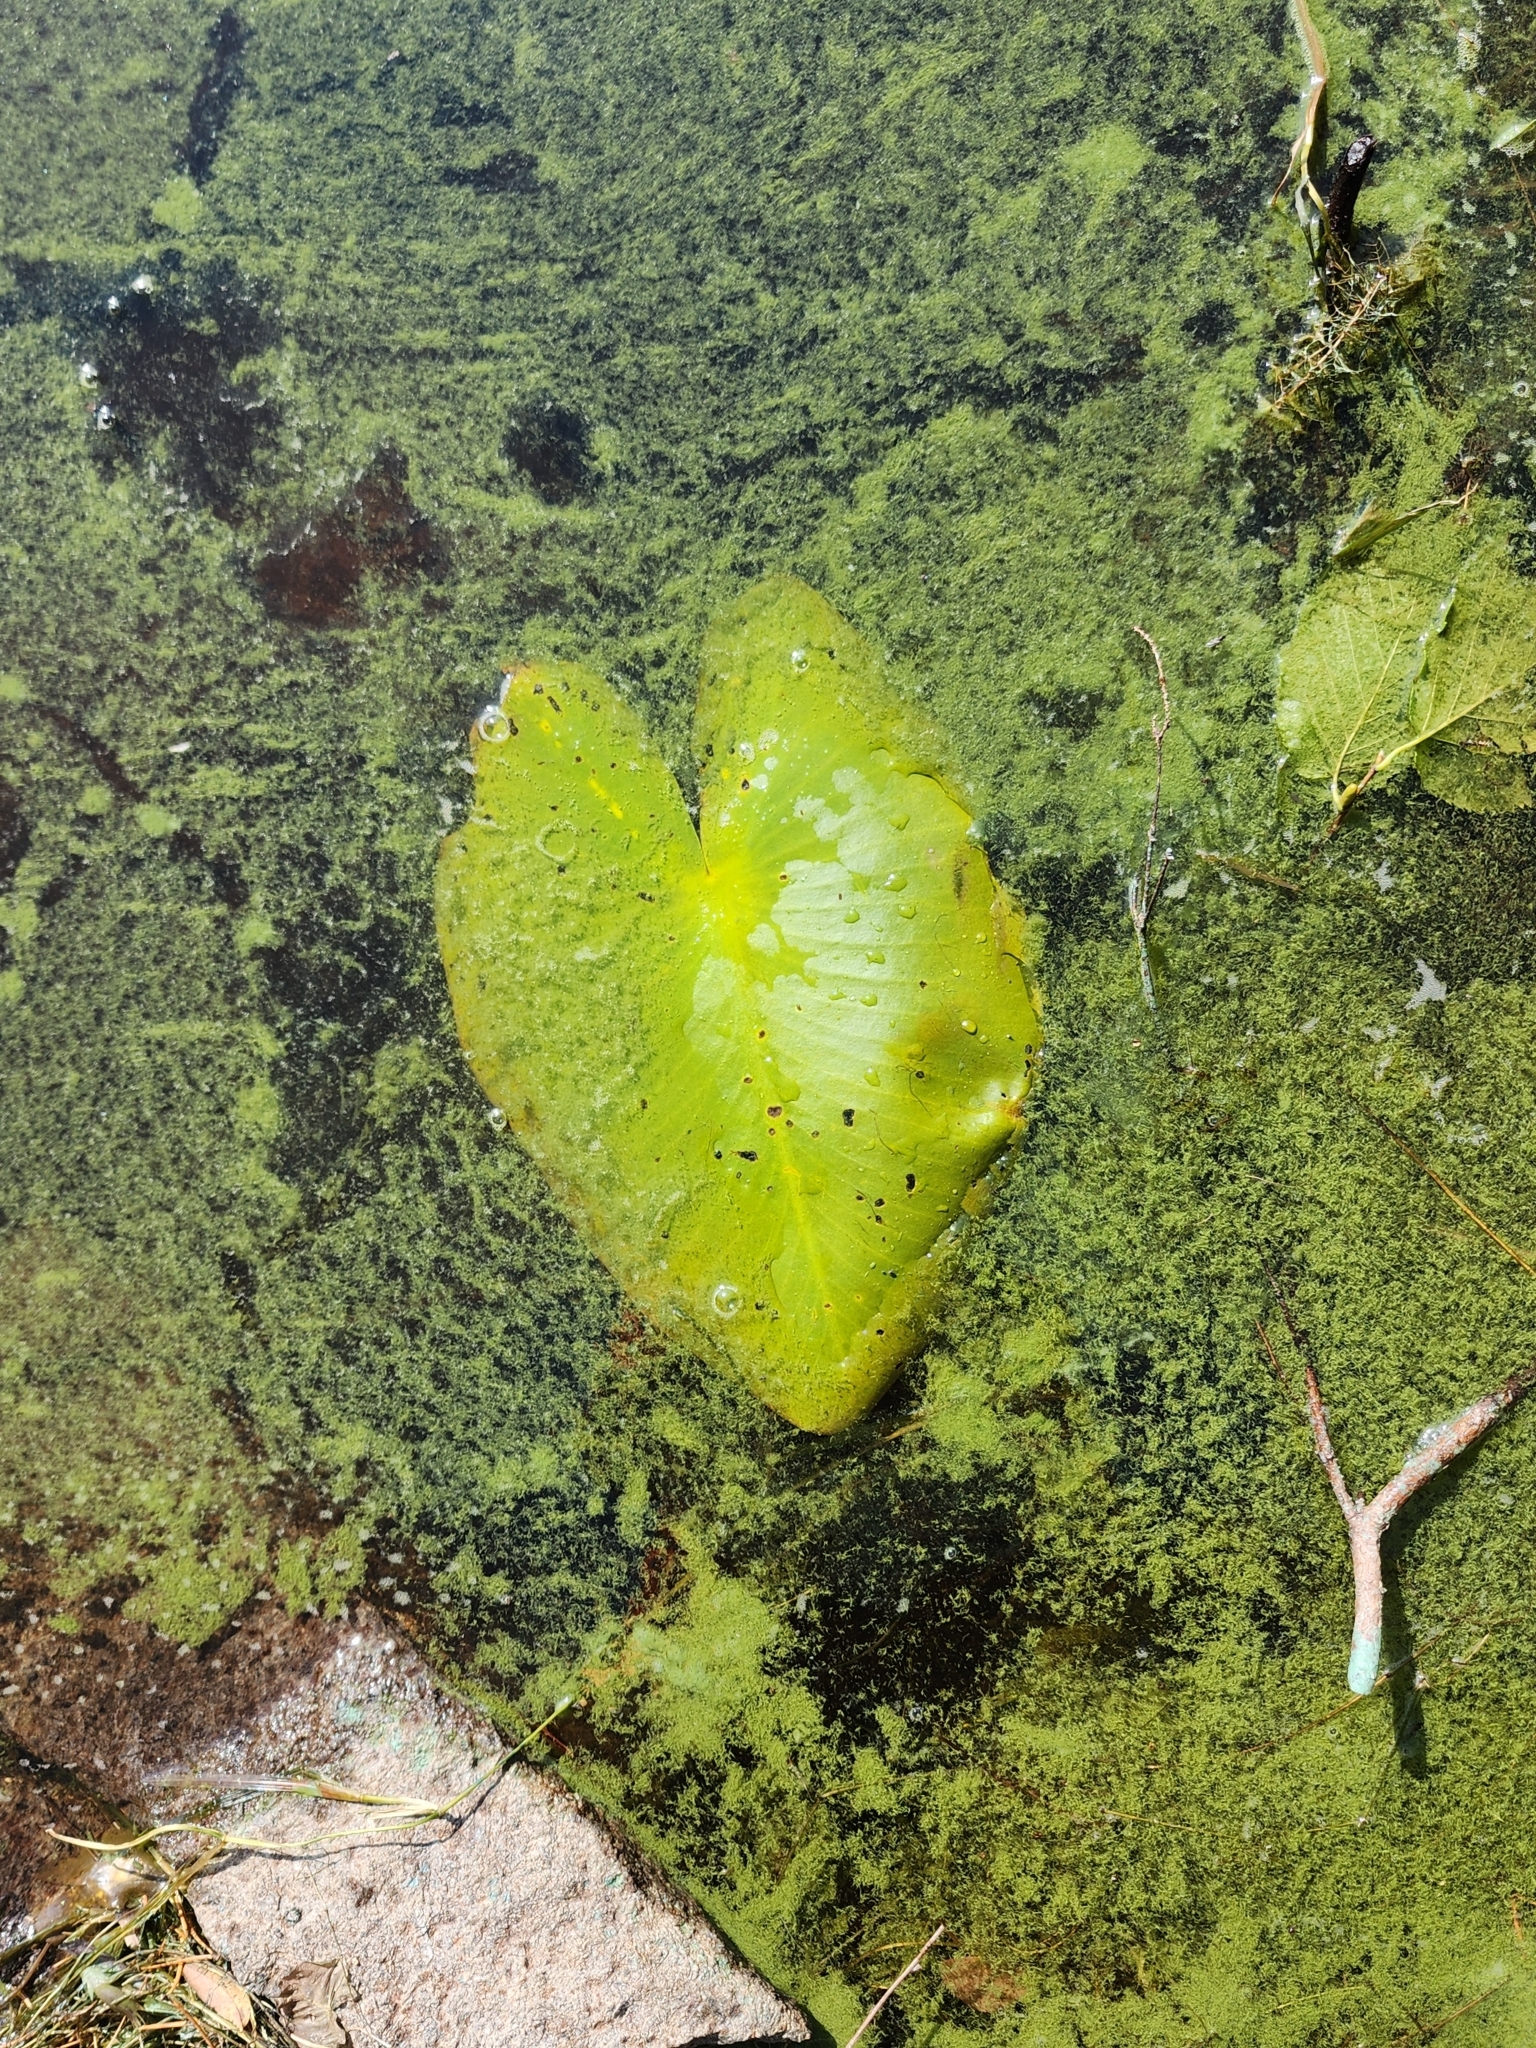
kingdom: Plantae
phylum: Tracheophyta
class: Magnoliopsida
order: Nymphaeales
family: Nymphaeaceae
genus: Nuphar
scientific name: Nuphar variegata
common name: Beaver-root
